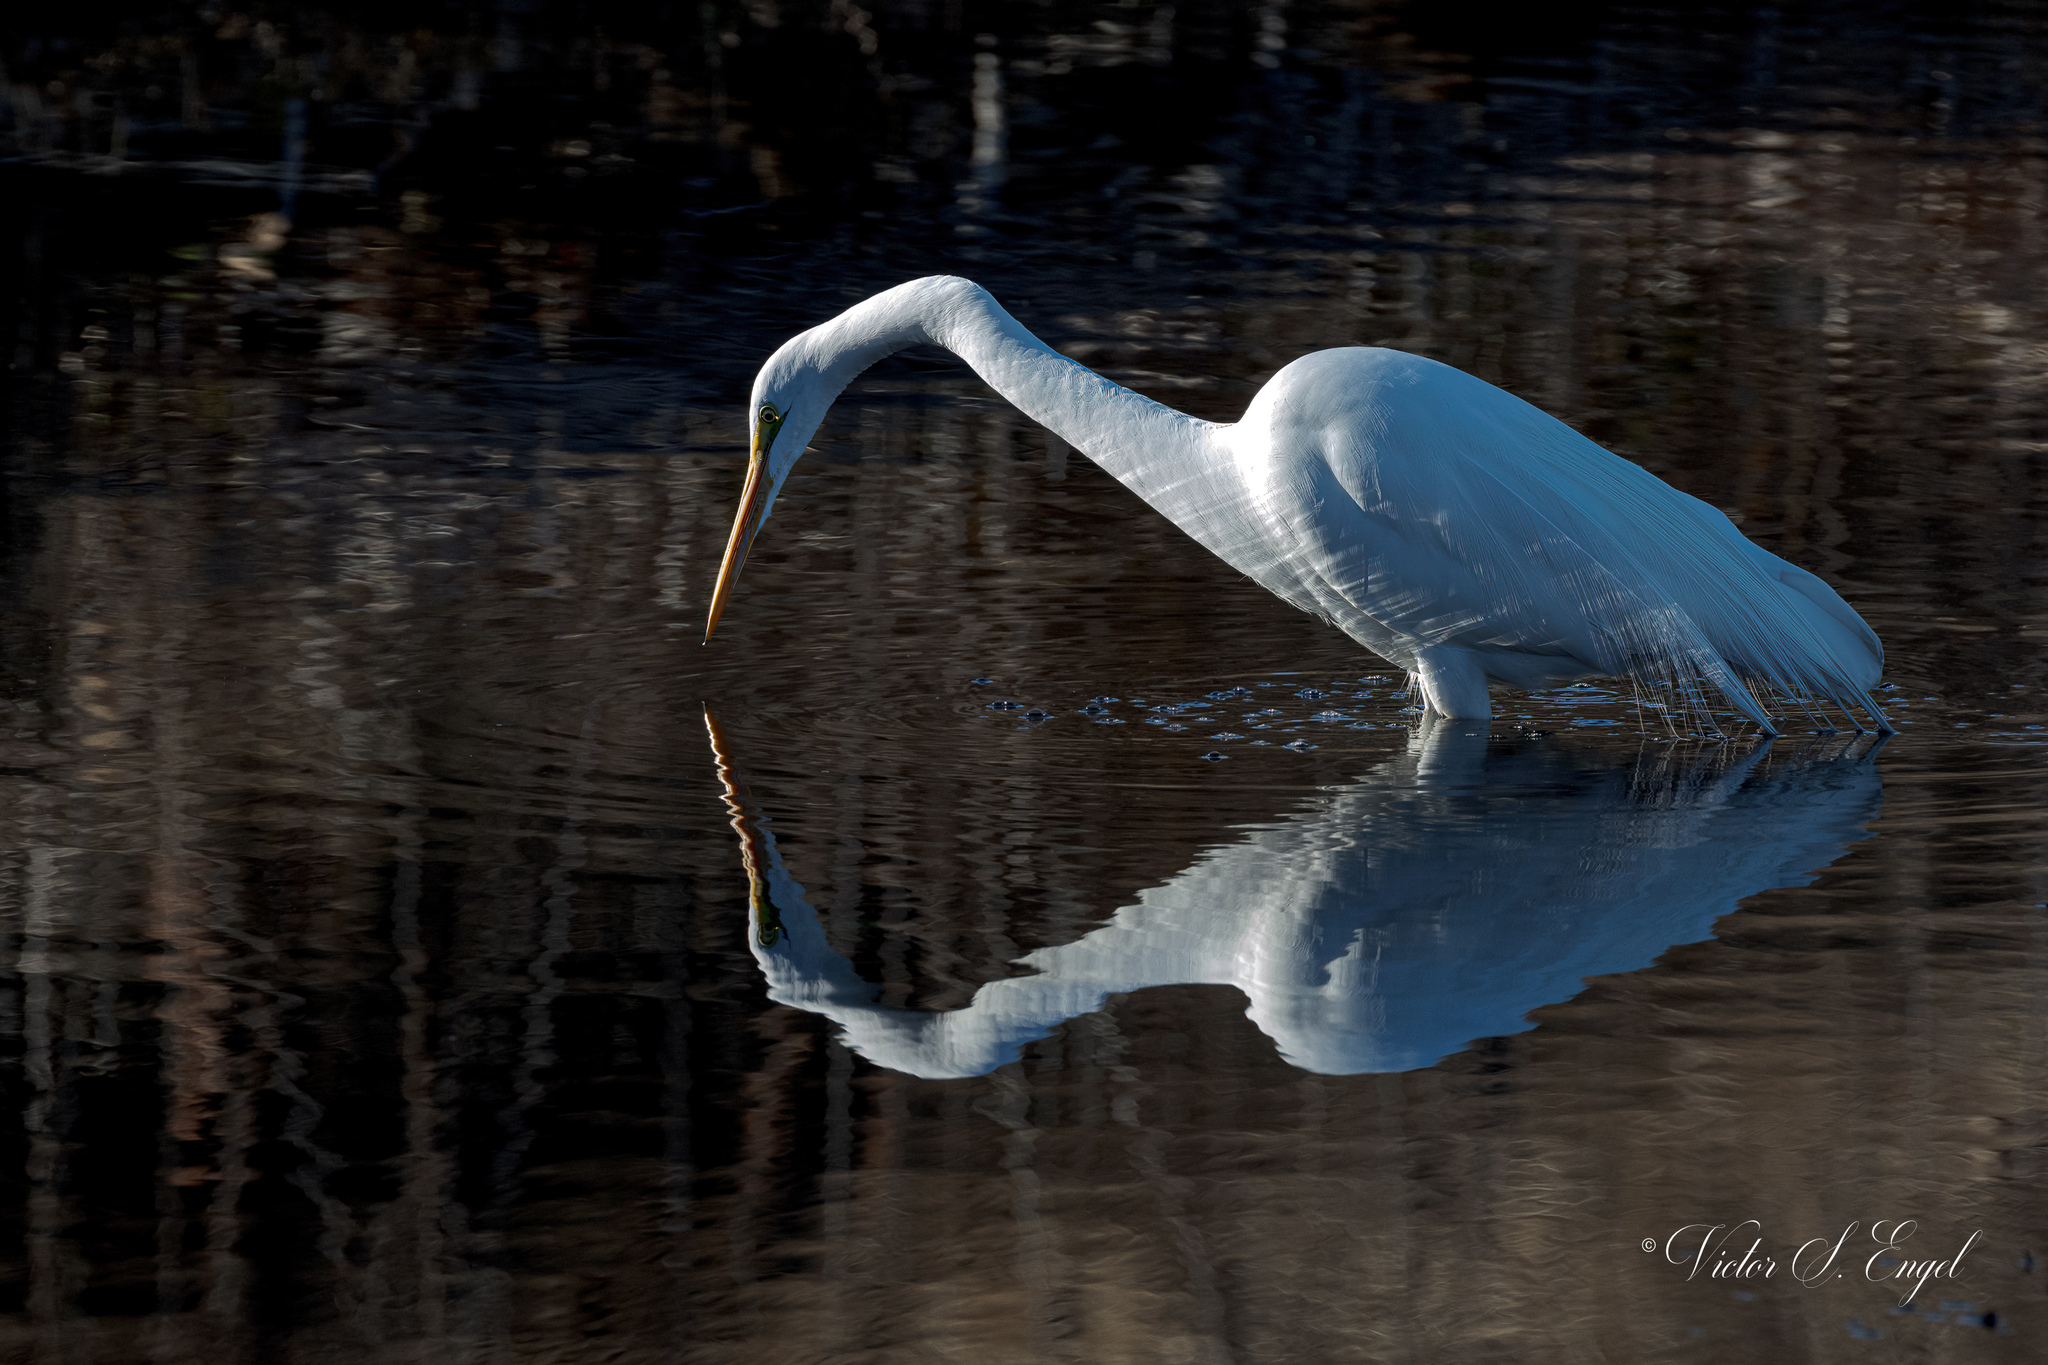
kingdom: Animalia
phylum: Chordata
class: Aves
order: Pelecaniformes
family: Ardeidae
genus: Ardea
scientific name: Ardea alba
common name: Great egret
